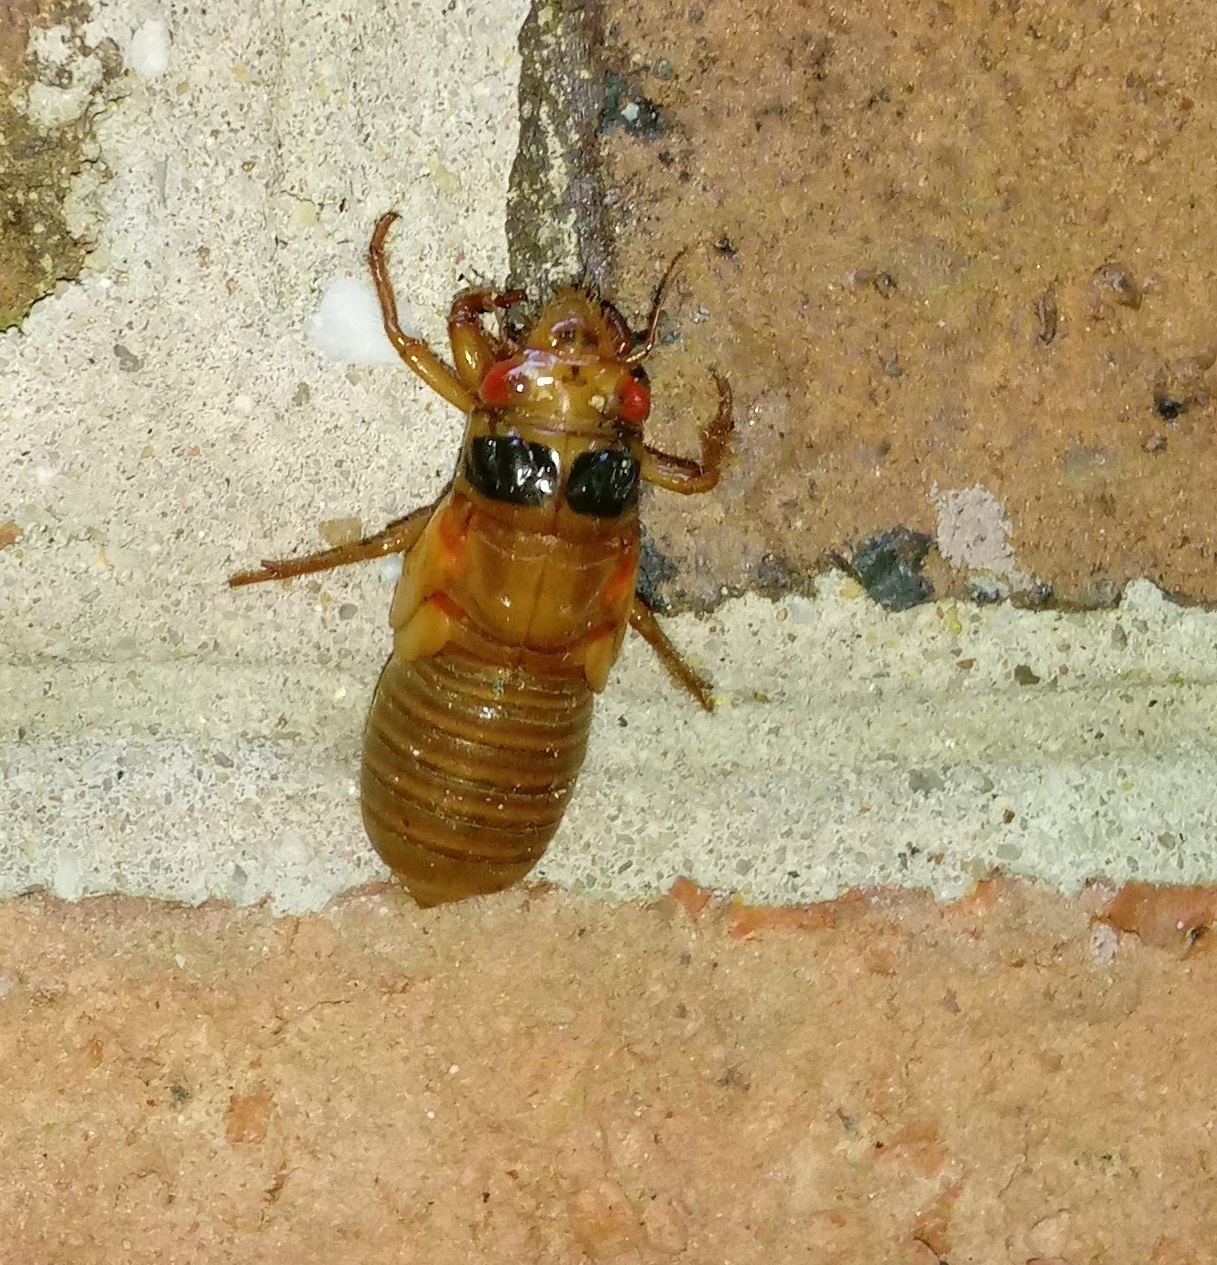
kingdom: Animalia
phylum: Arthropoda
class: Insecta
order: Hemiptera
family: Cicadidae
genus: Magicicada
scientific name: Magicicada
